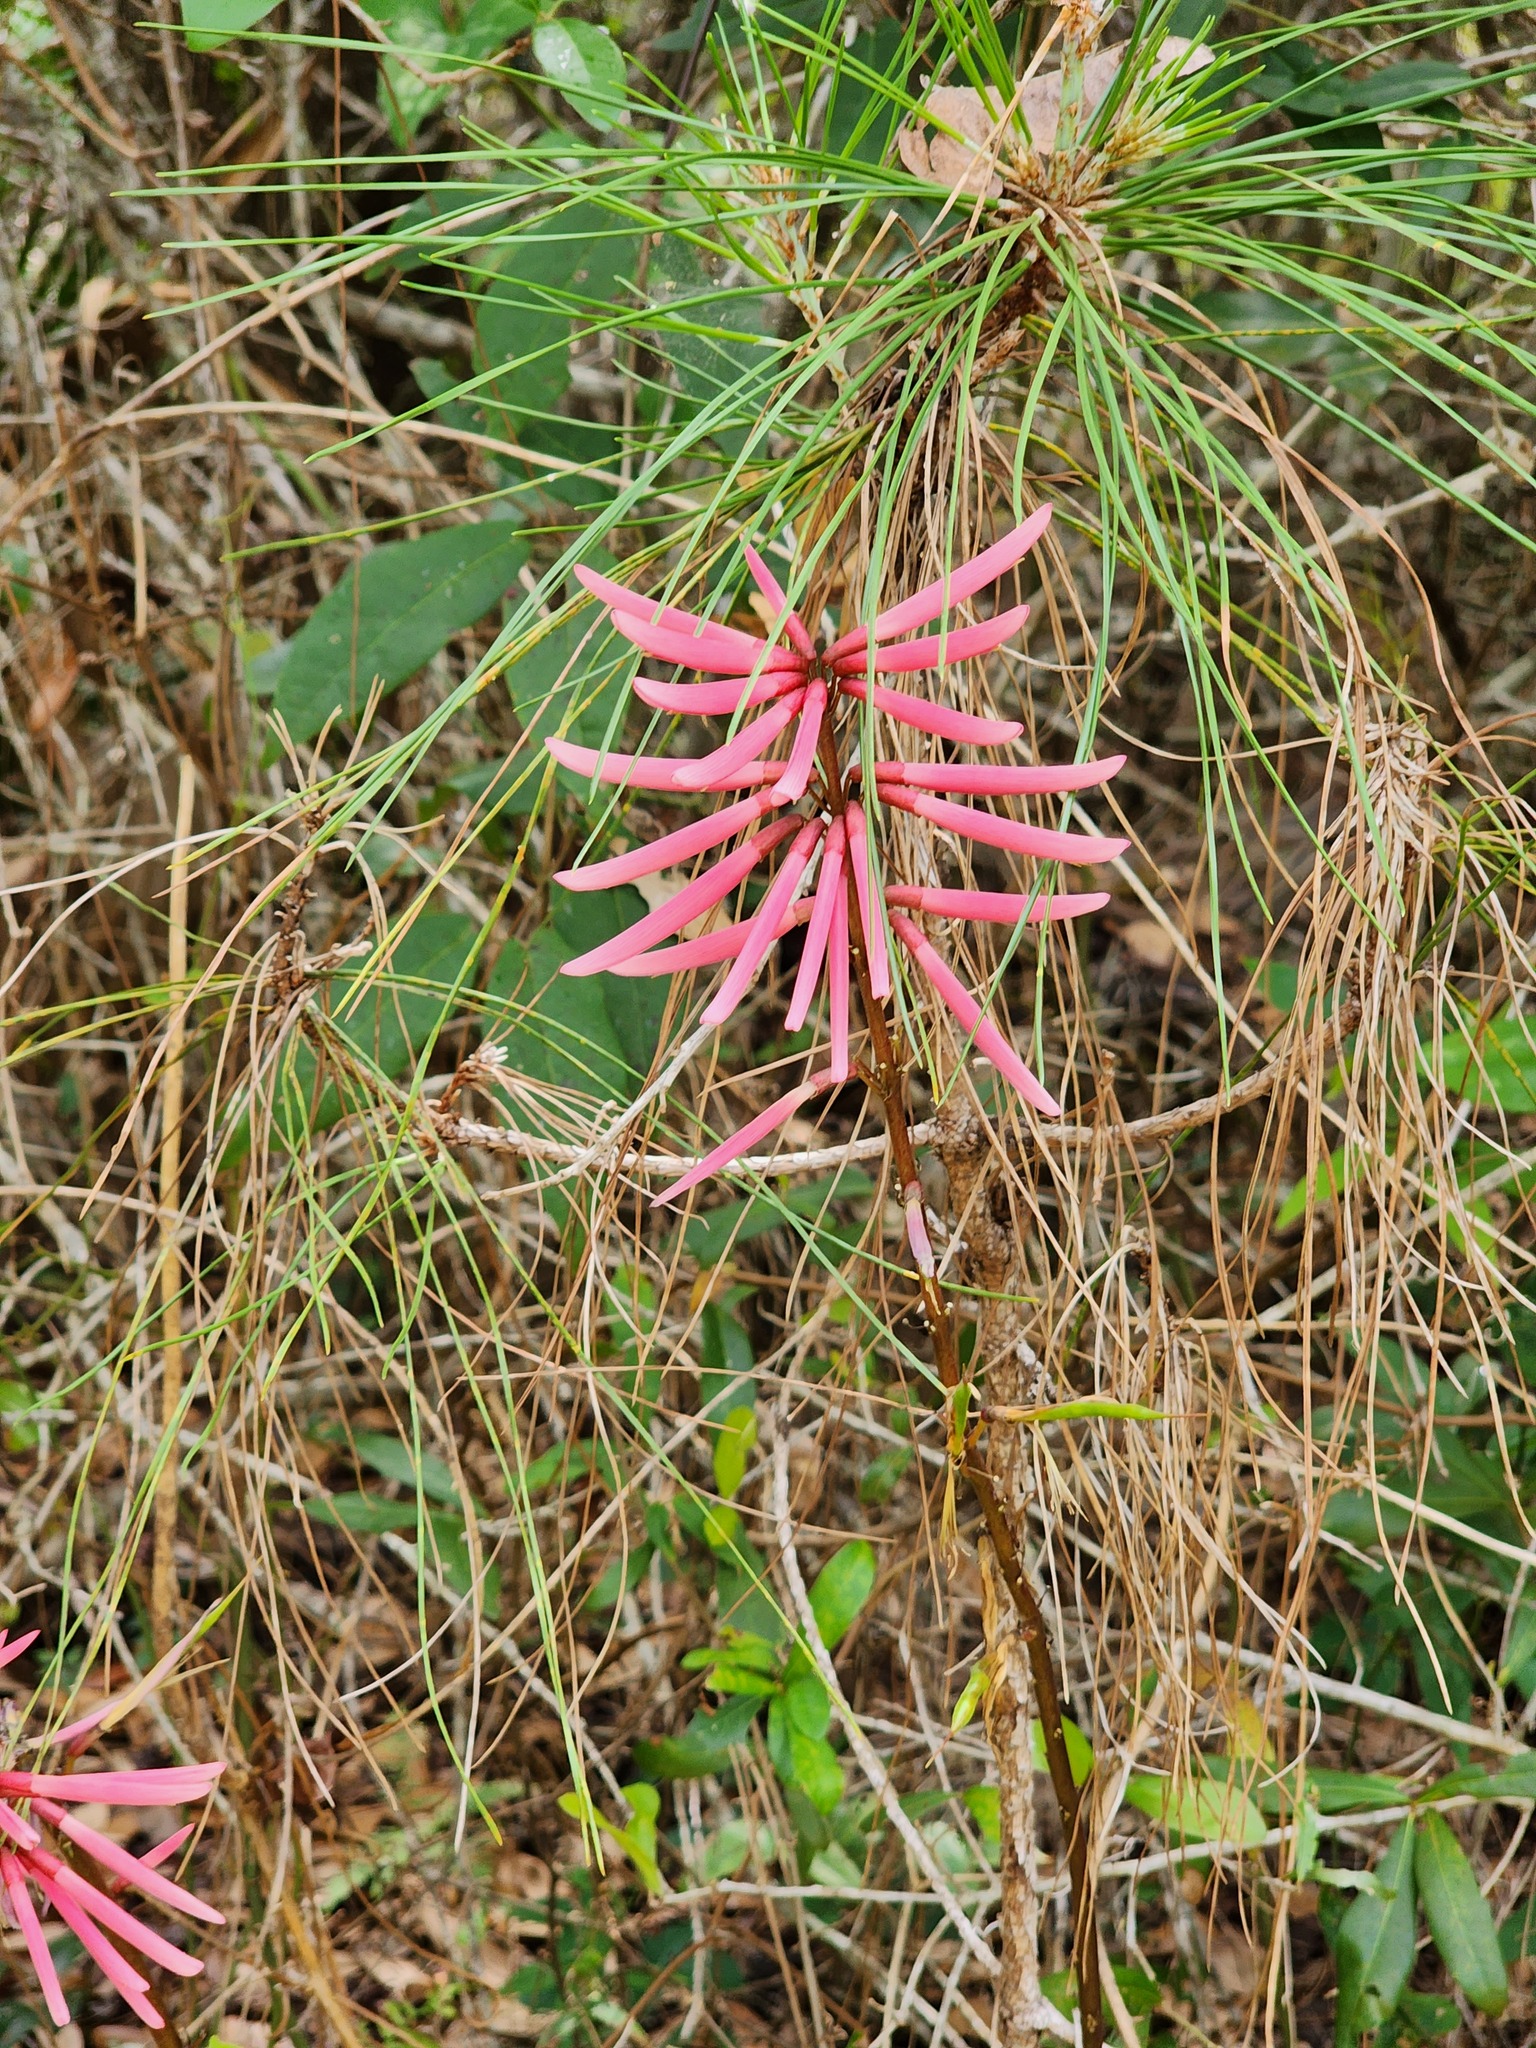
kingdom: Plantae
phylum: Tracheophyta
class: Magnoliopsida
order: Fabales
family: Fabaceae
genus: Erythrina
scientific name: Erythrina herbacea
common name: Coral-bean
